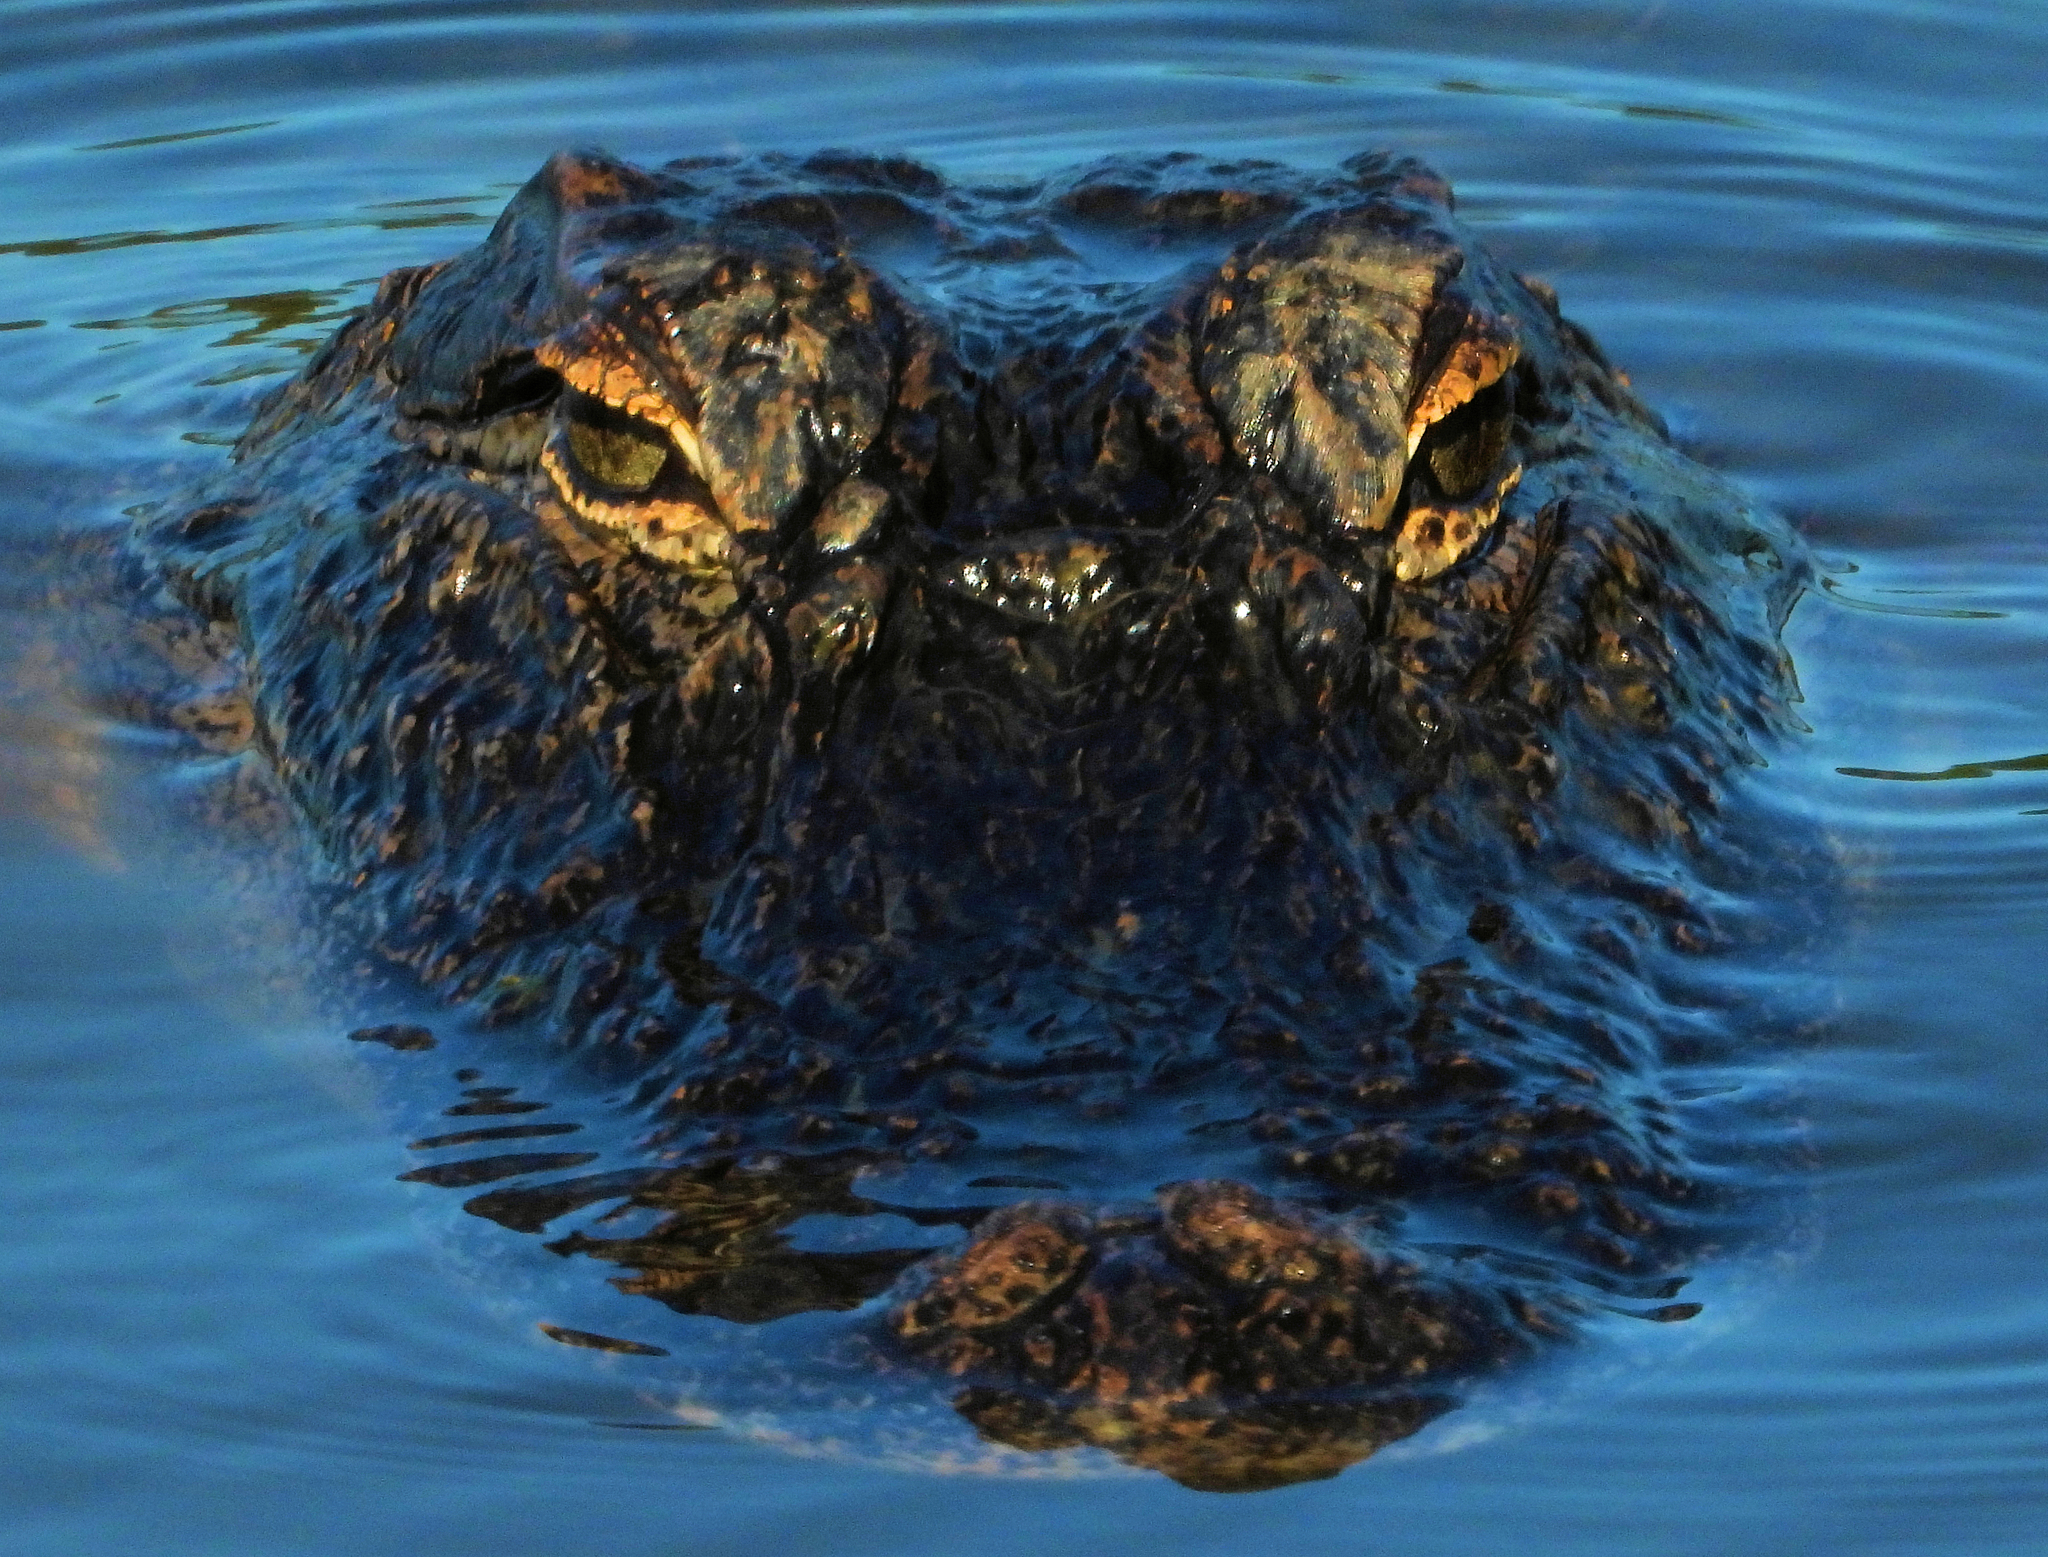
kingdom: Animalia
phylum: Chordata
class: Crocodylia
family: Alligatoridae
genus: Alligator
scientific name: Alligator mississippiensis
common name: American alligator
